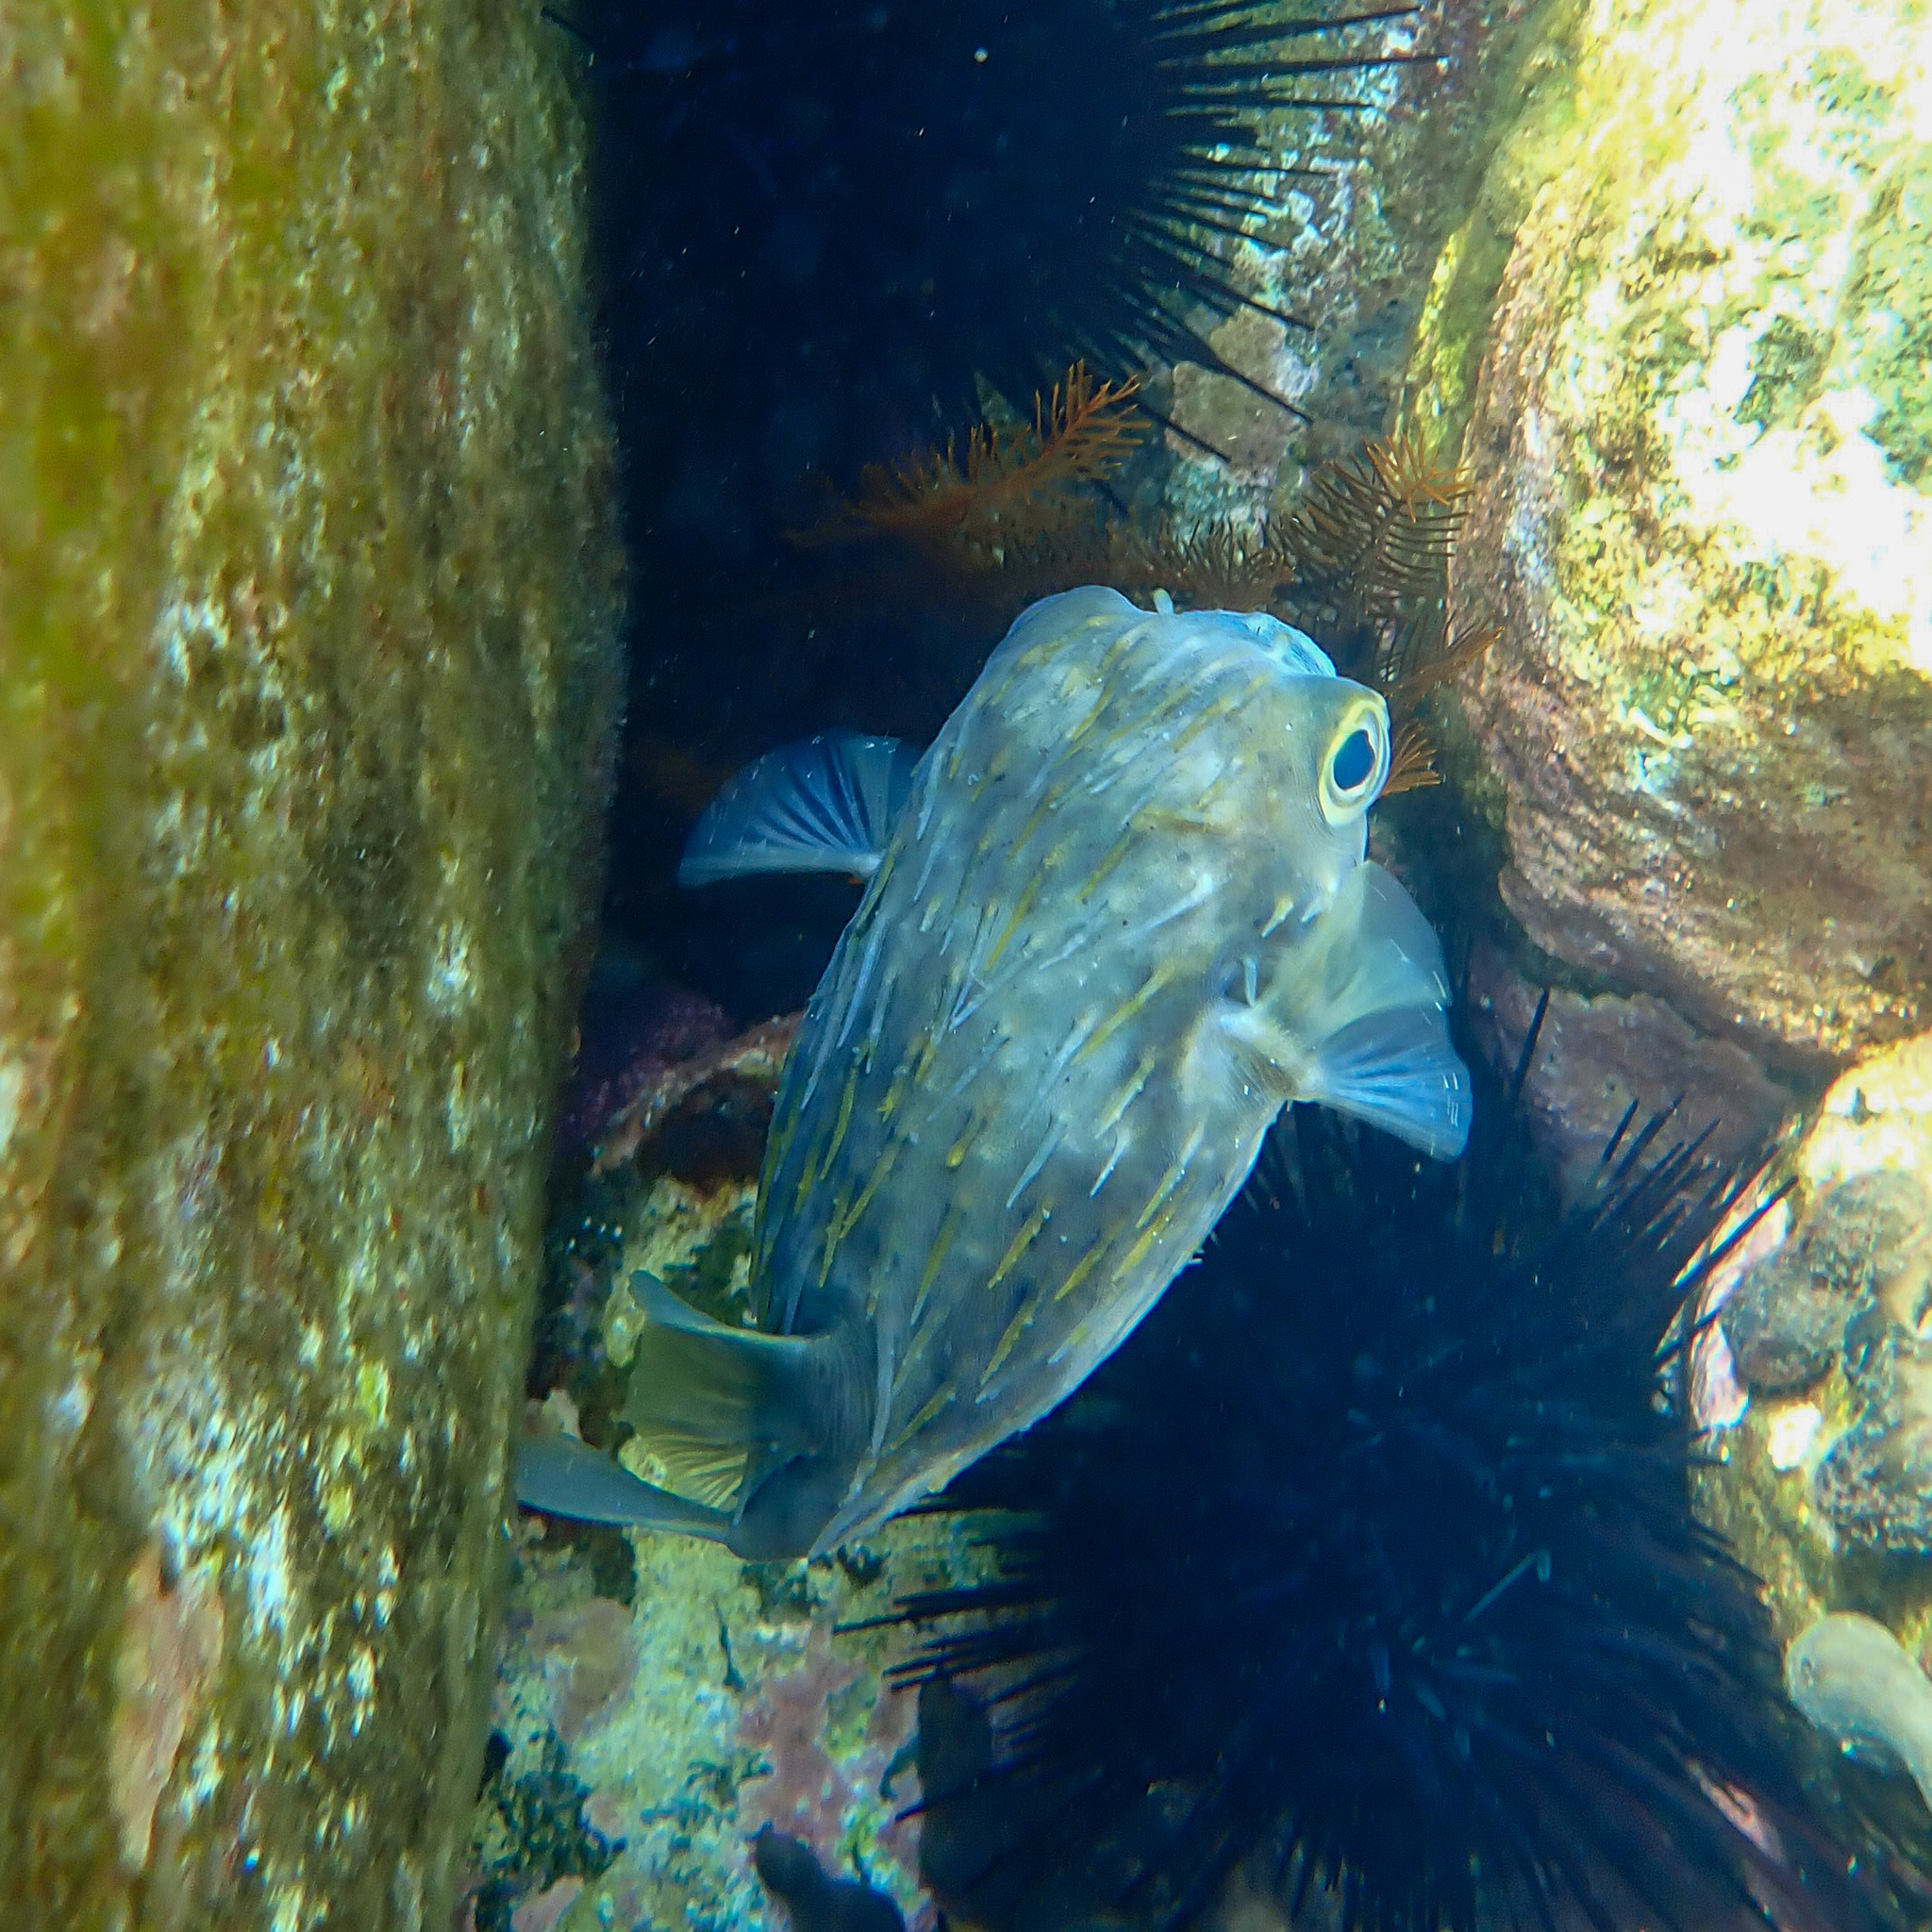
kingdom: Animalia
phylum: Chordata
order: Tetraodontiformes
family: Diodontidae
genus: Diodon
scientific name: Diodon nicthemerus
